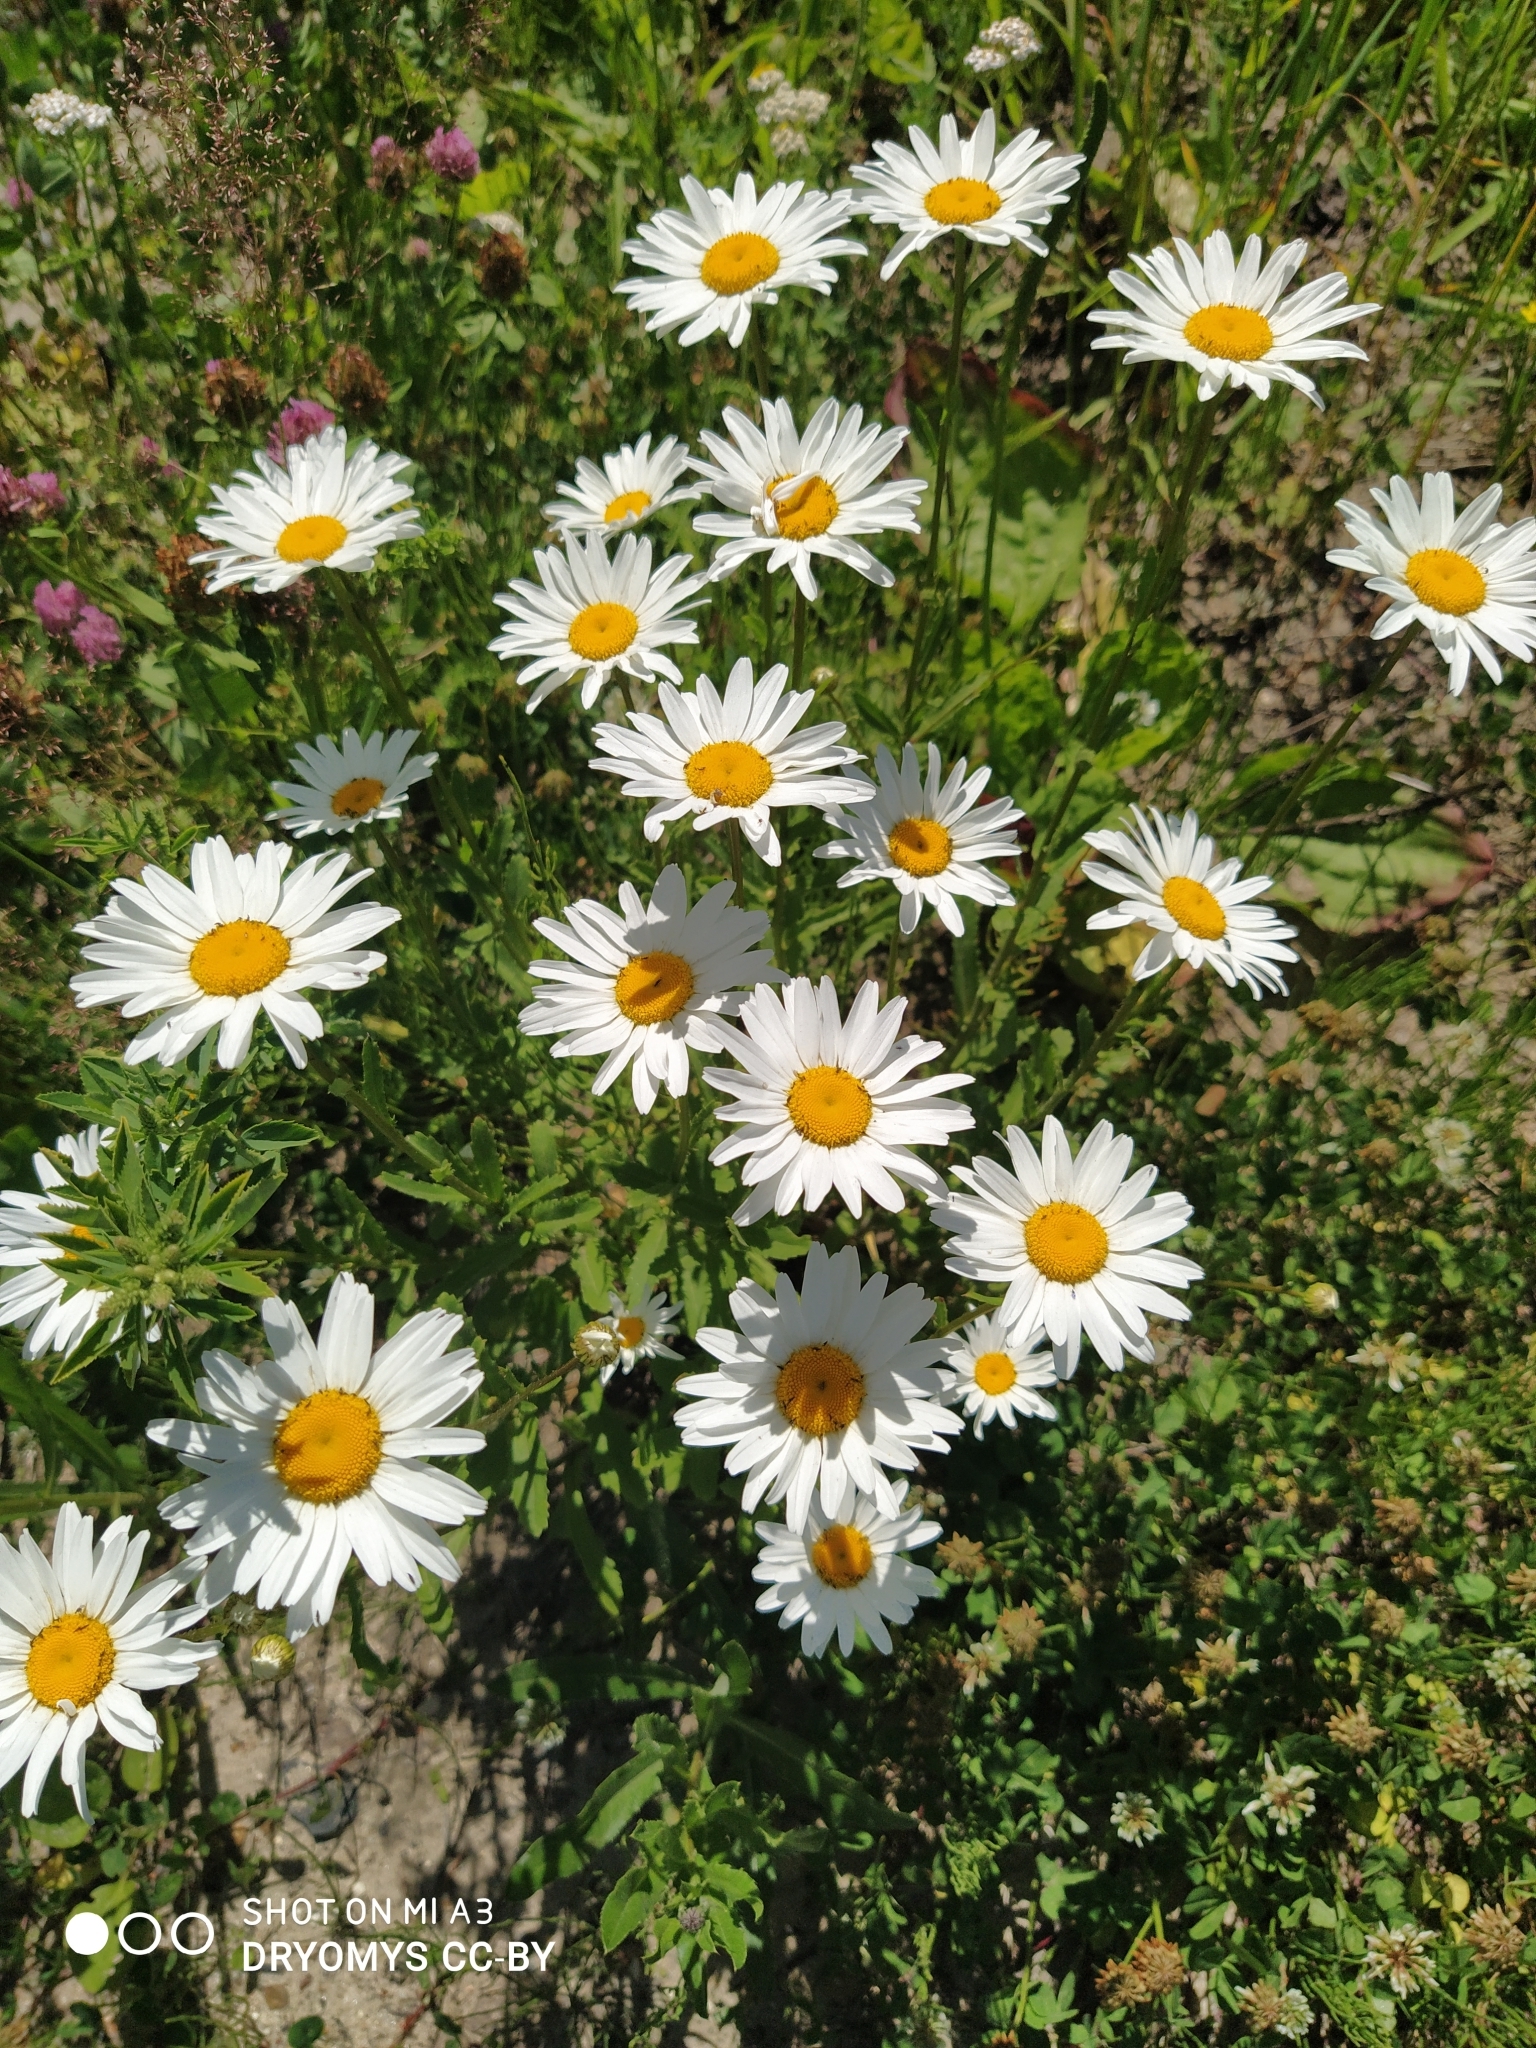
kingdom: Plantae
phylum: Tracheophyta
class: Magnoliopsida
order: Asterales
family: Asteraceae
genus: Leucanthemum
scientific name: Leucanthemum vulgare
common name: Oxeye daisy
